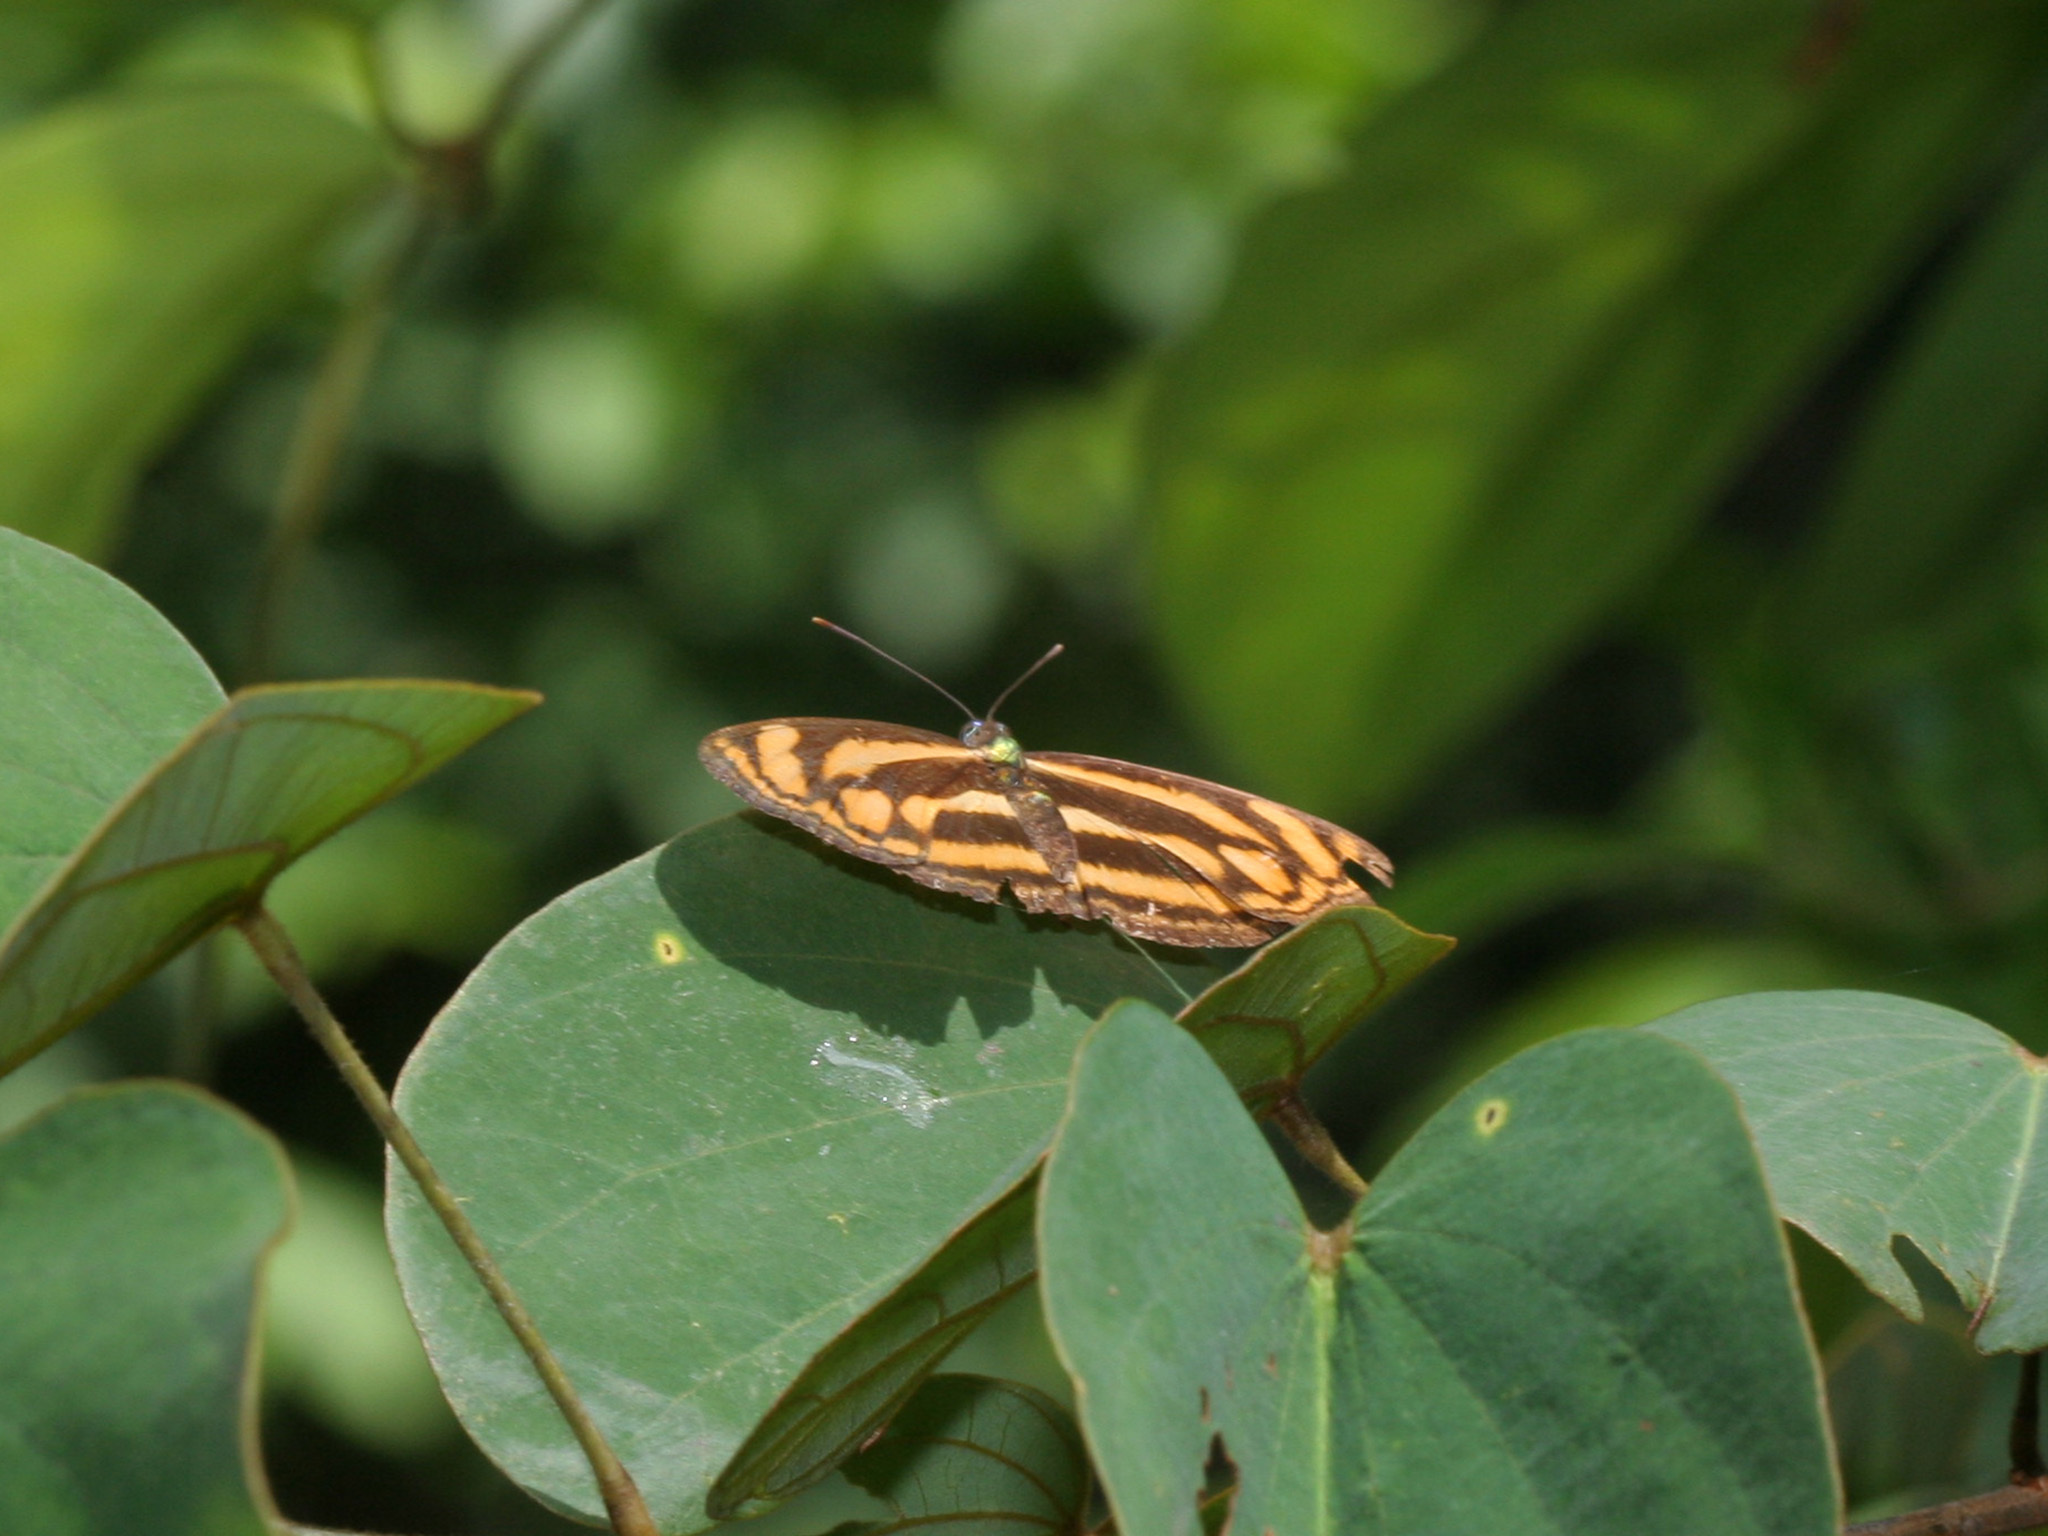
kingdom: Animalia
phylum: Arthropoda
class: Insecta
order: Lepidoptera
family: Nymphalidae
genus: Lasippa
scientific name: Lasippa tiga
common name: Malayan lascar
